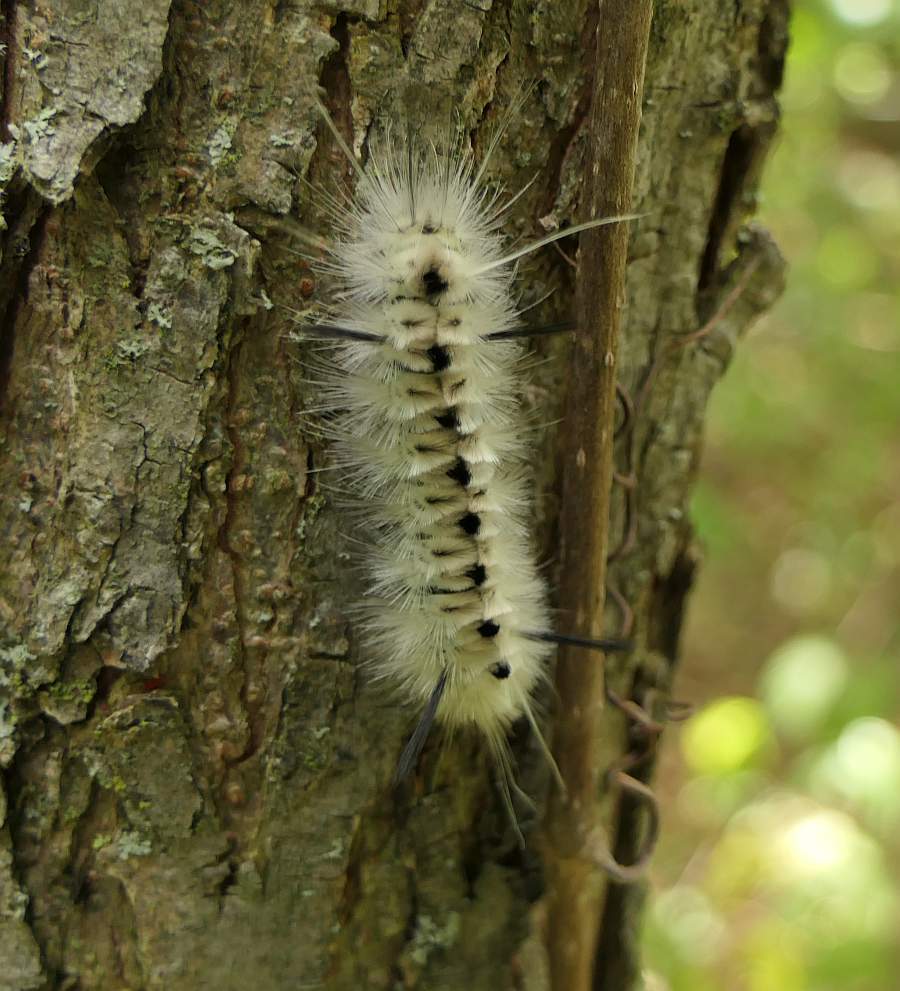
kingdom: Animalia
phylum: Arthropoda
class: Insecta
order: Lepidoptera
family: Erebidae
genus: Lophocampa
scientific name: Lophocampa caryae
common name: Hickory tussock moth
